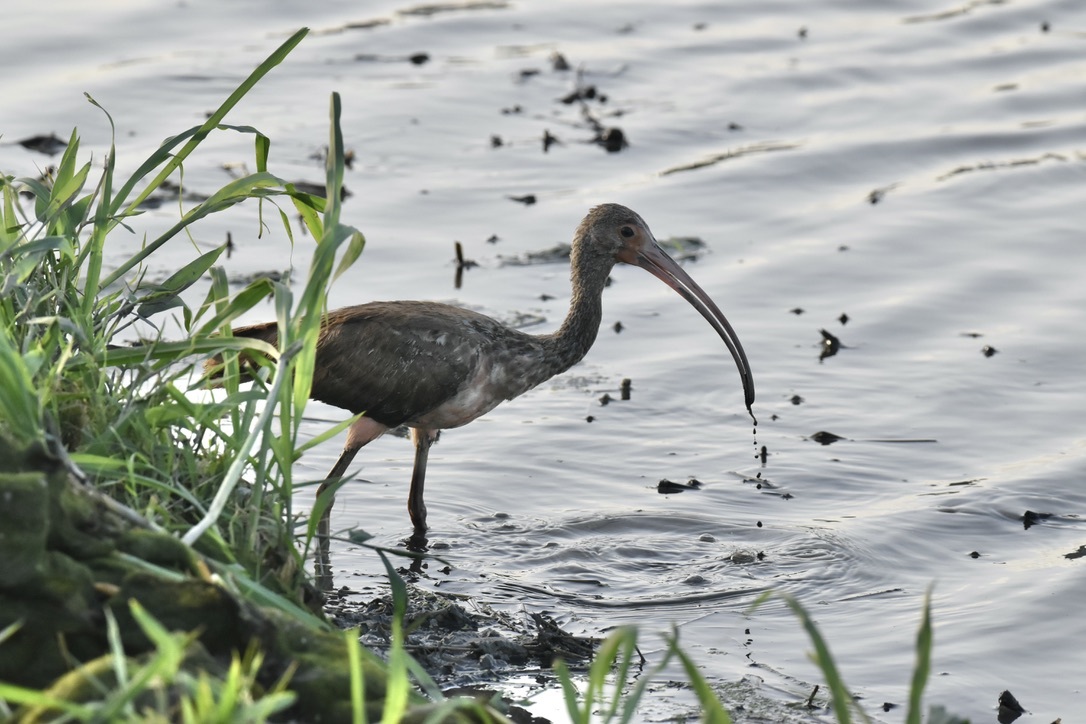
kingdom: Animalia
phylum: Chordata
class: Aves
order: Pelecaniformes
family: Threskiornithidae
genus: Eudocimus
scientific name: Eudocimus ruber
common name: Scarlet ibis
